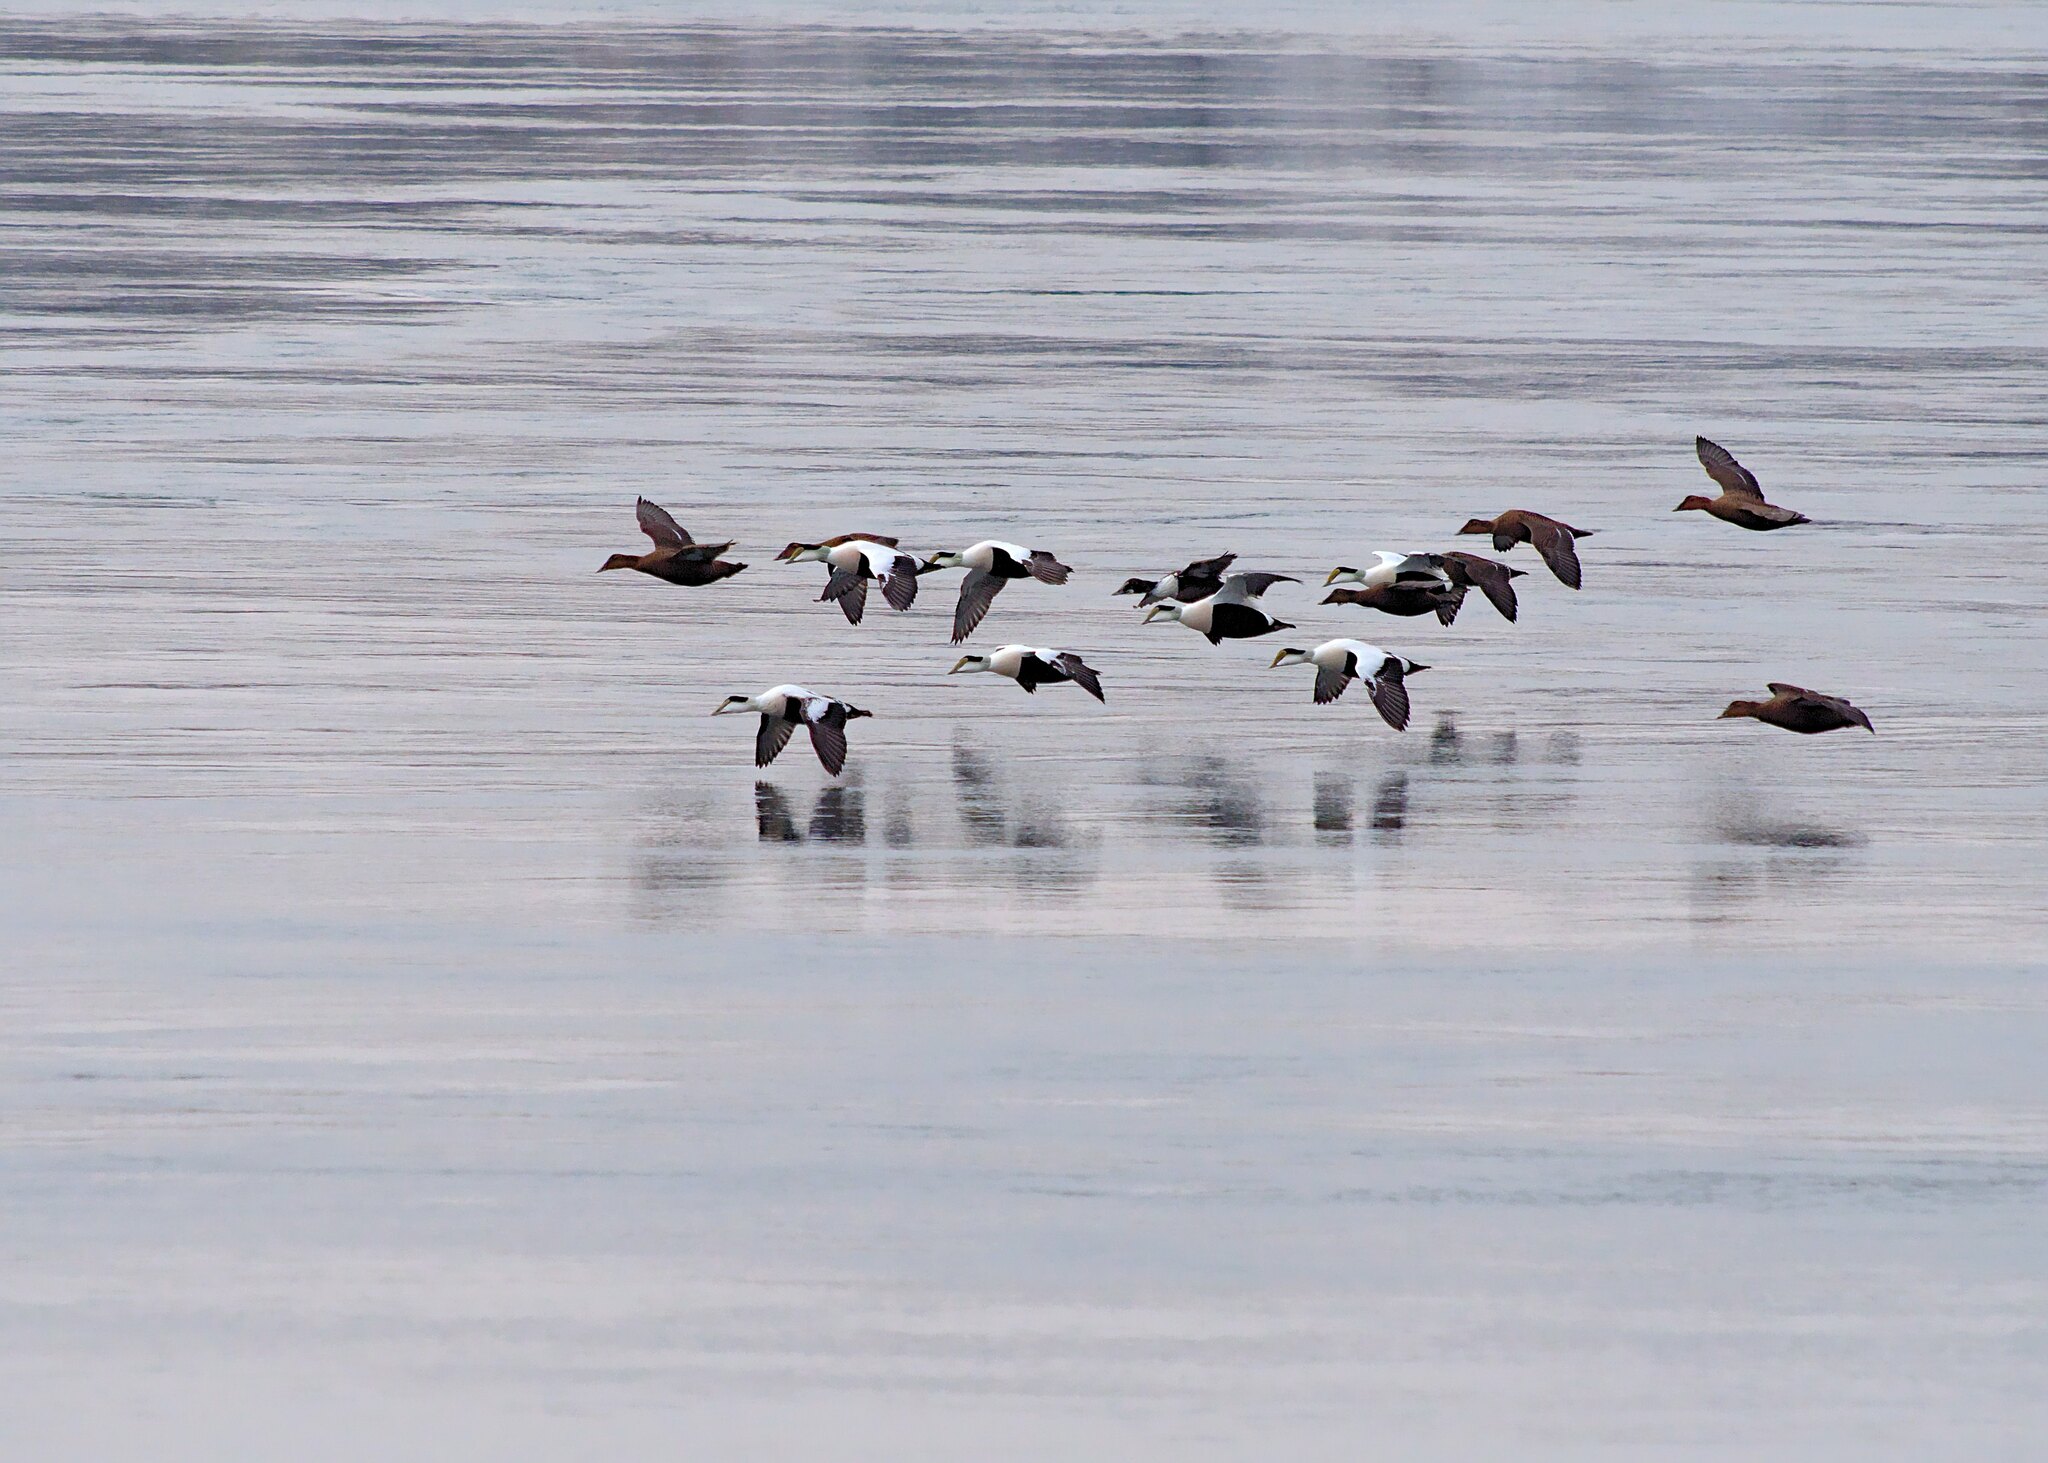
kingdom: Animalia
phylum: Chordata
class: Aves
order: Anseriformes
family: Anatidae
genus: Somateria
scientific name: Somateria mollissima
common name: Common eider
